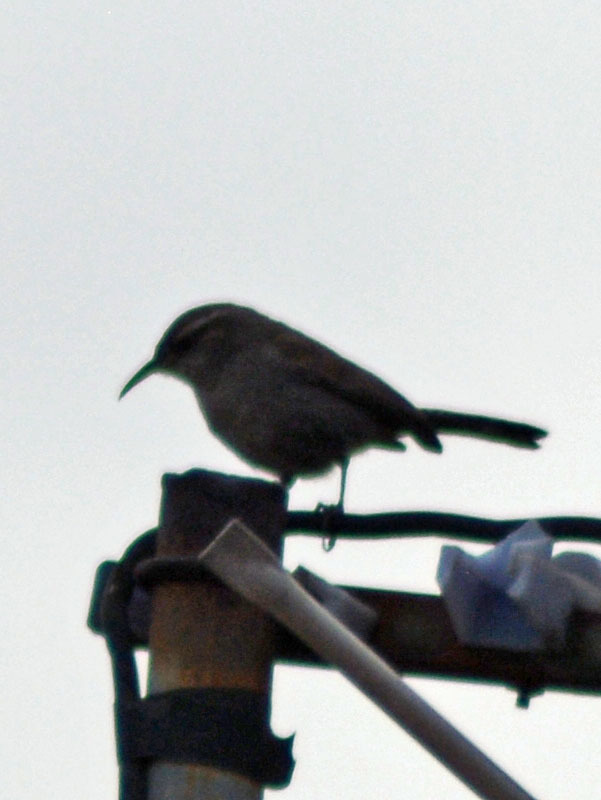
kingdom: Animalia
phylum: Chordata
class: Aves
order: Passeriformes
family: Troglodytidae
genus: Thryomanes
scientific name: Thryomanes bewickii
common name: Bewick's wren
